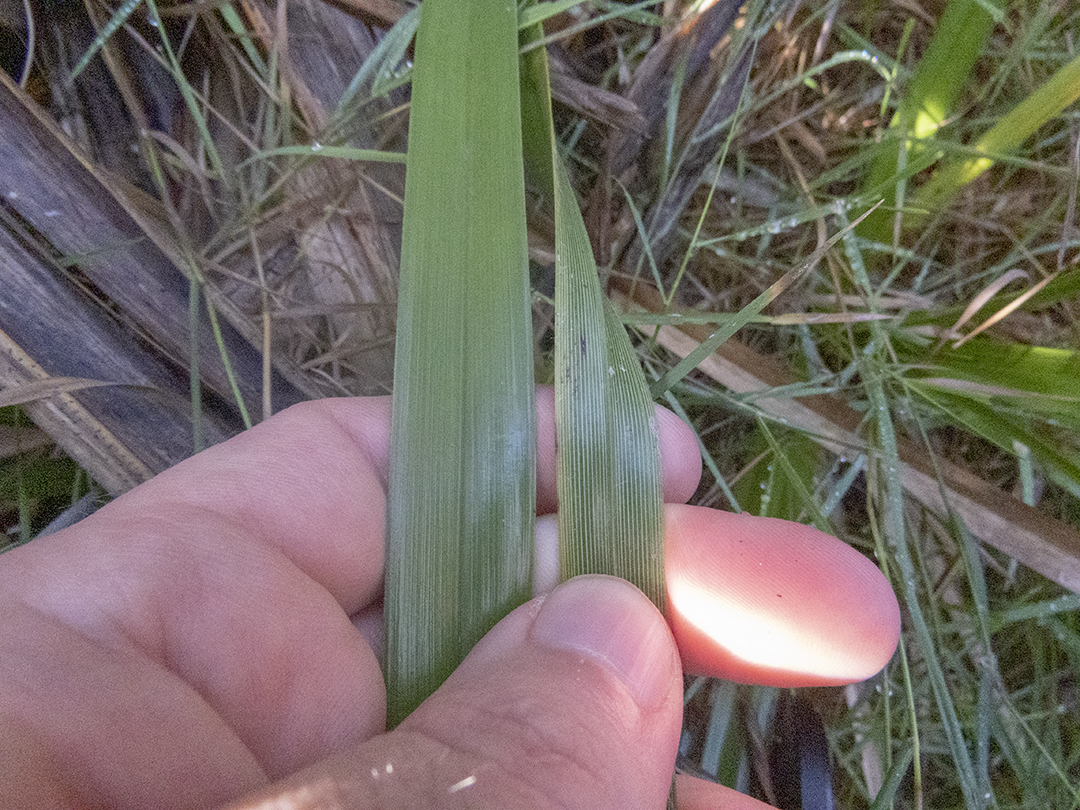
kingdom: Plantae
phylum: Tracheophyta
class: Liliopsida
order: Poales
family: Cyperaceae
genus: Cyperus
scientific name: Cyperus ustulatus
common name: Giant umbrella-sedge
